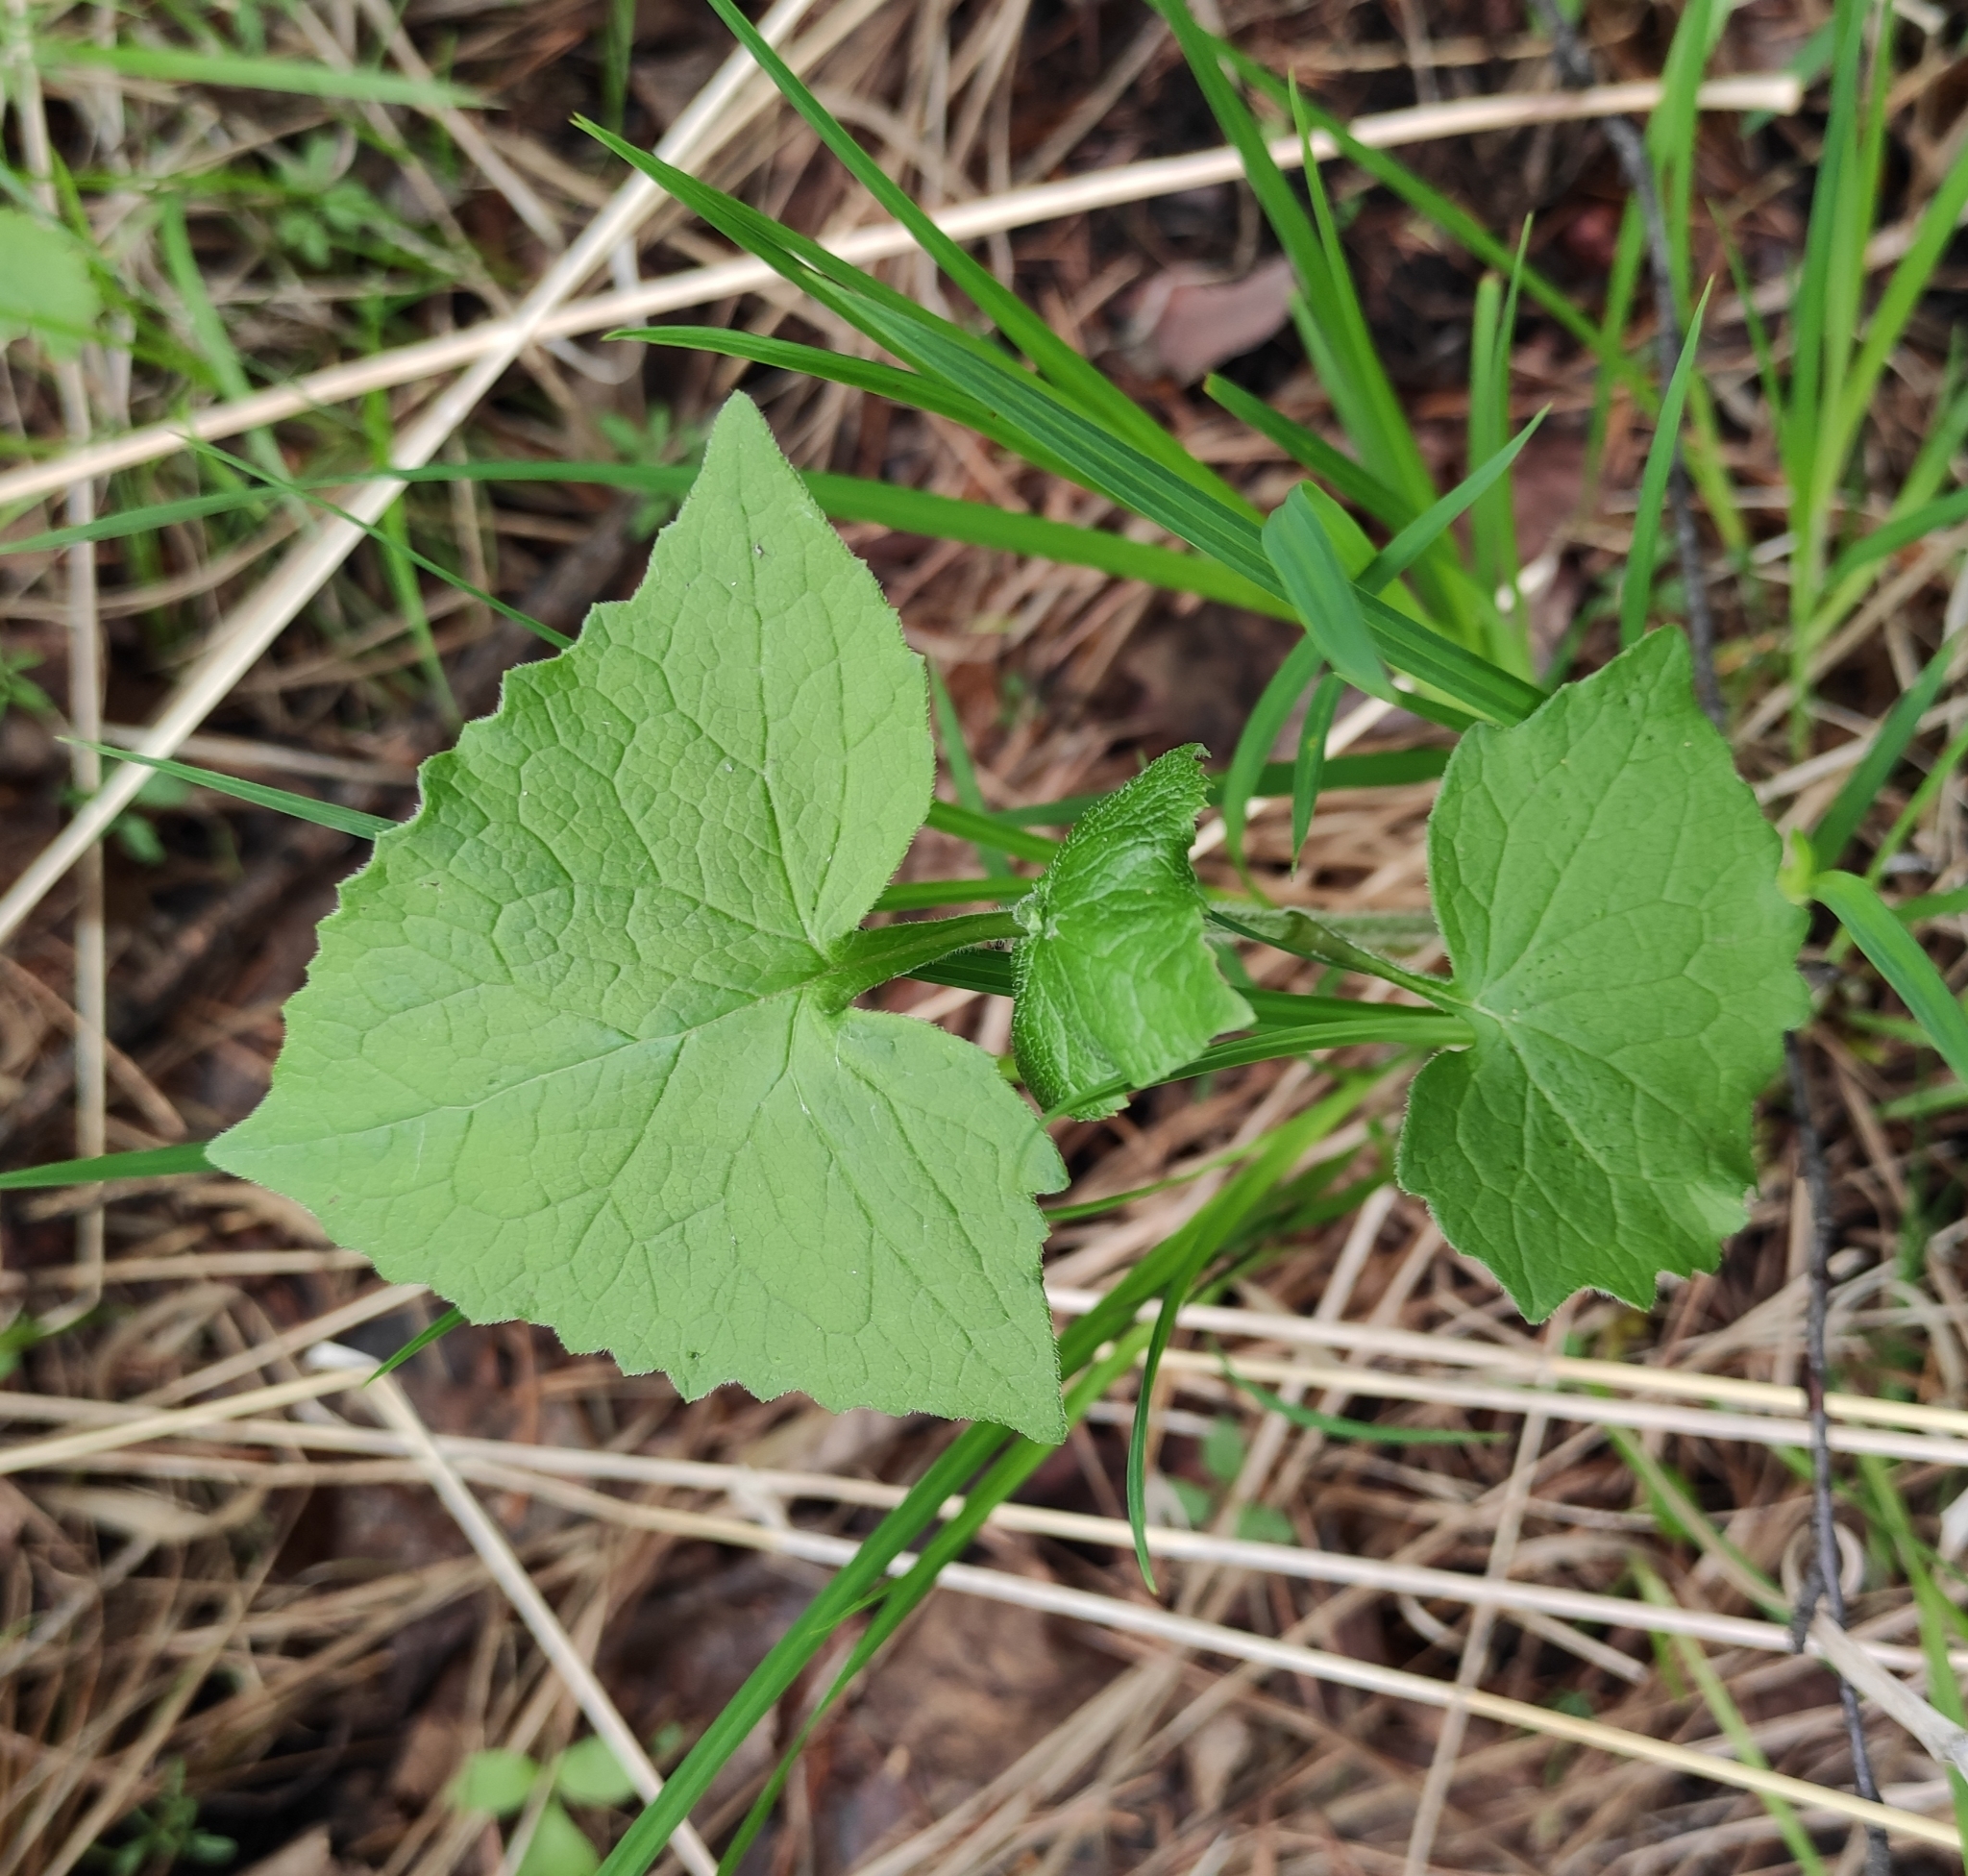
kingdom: Plantae
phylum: Tracheophyta
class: Magnoliopsida
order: Asterales
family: Asteraceae
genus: Parasenecio
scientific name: Parasenecio hastatus
